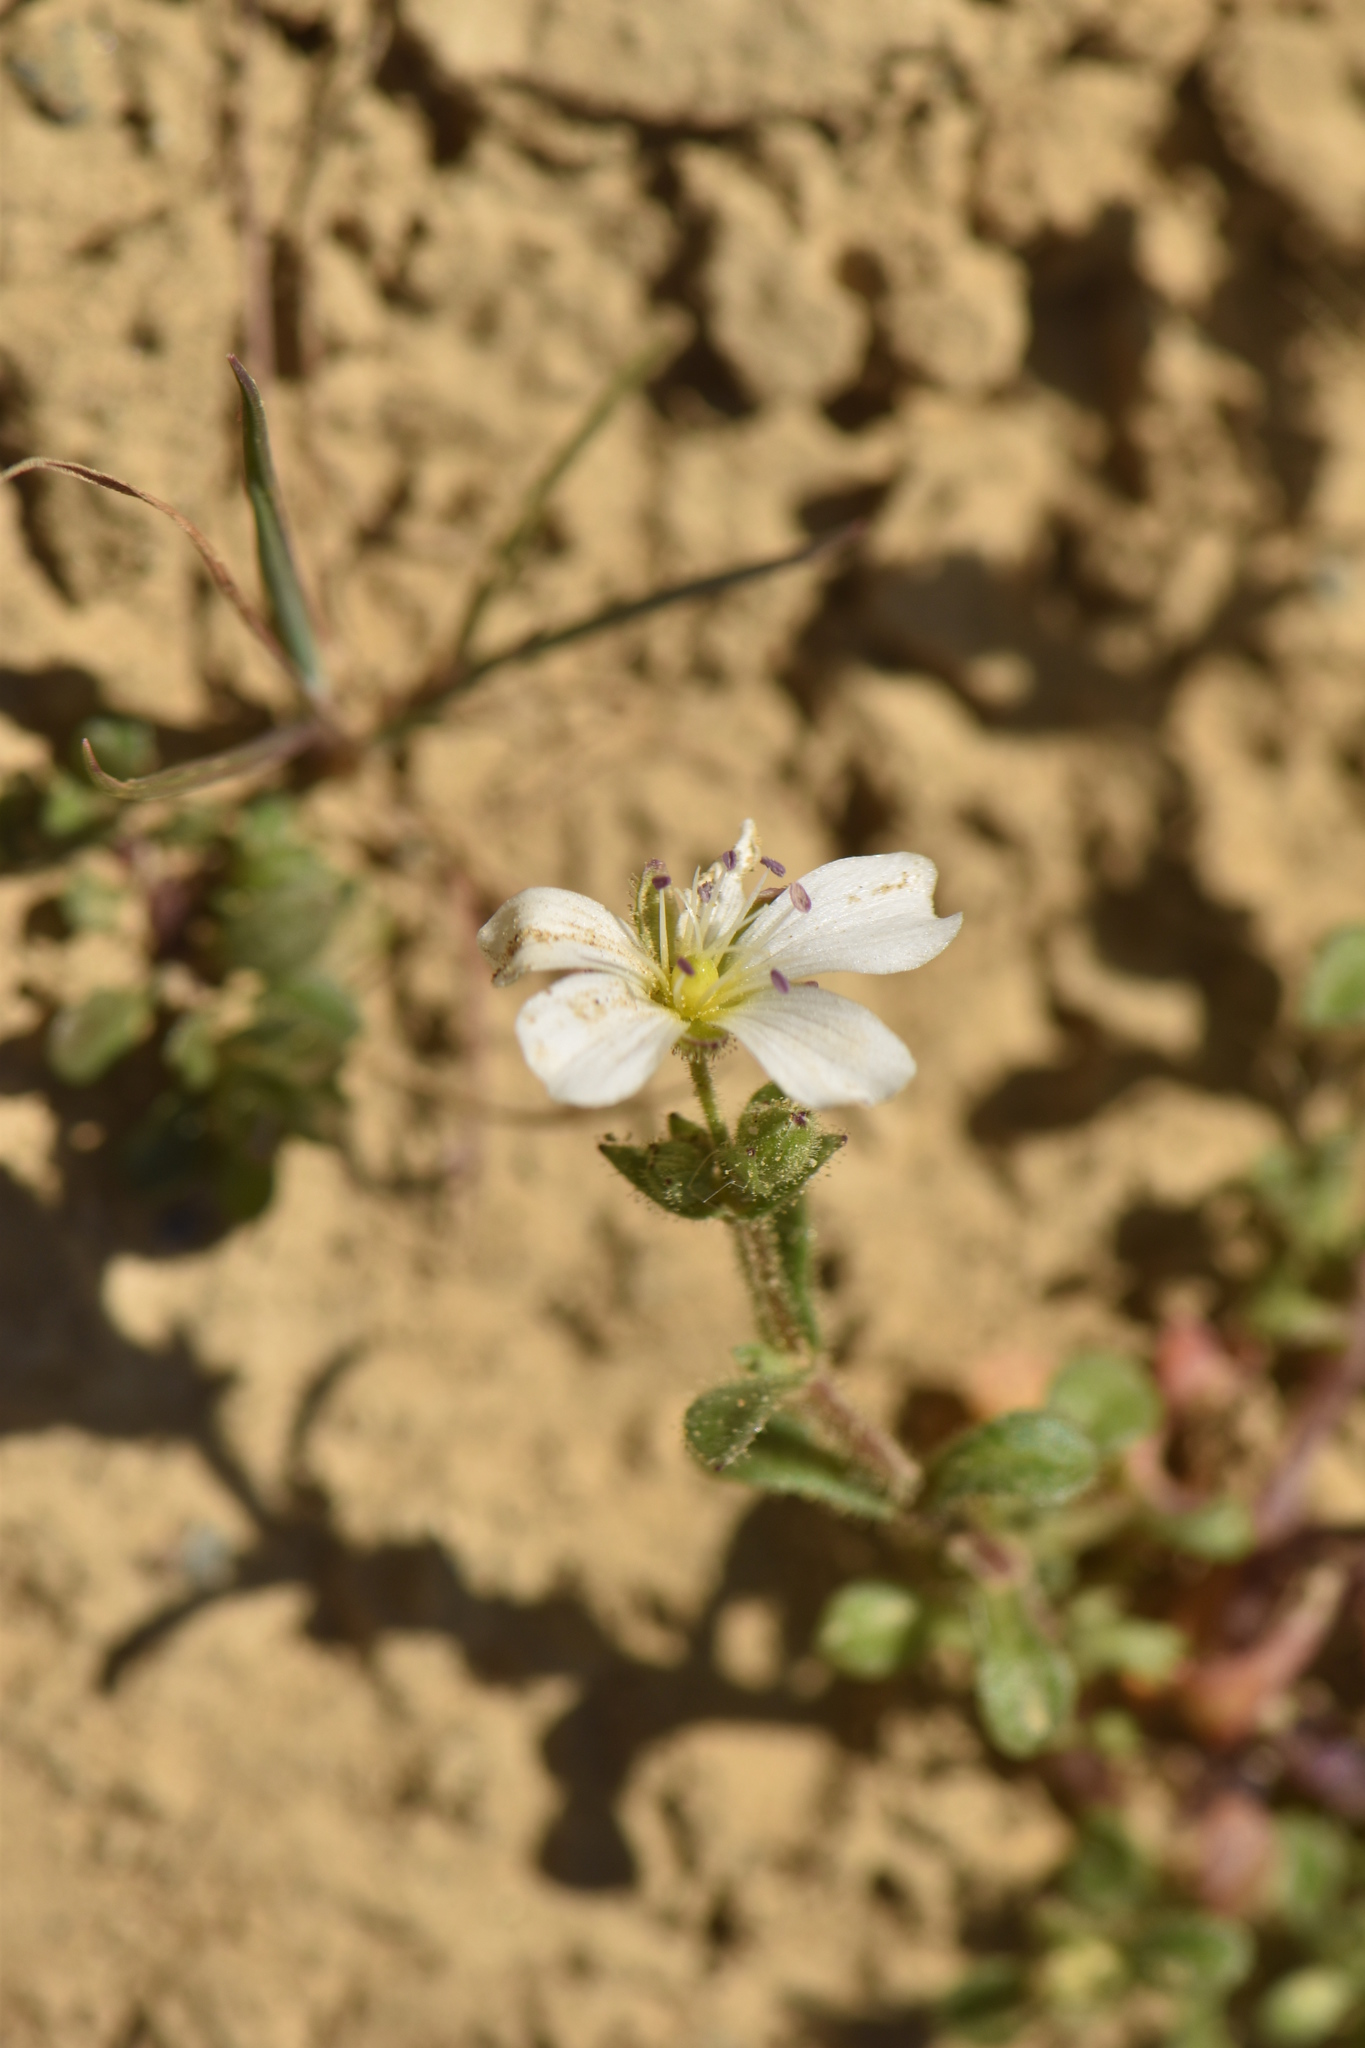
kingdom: Plantae
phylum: Tracheophyta
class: Magnoliopsida
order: Caryophyllales
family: Caryophyllaceae
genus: Arenaria
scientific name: Arenaria hispanica
